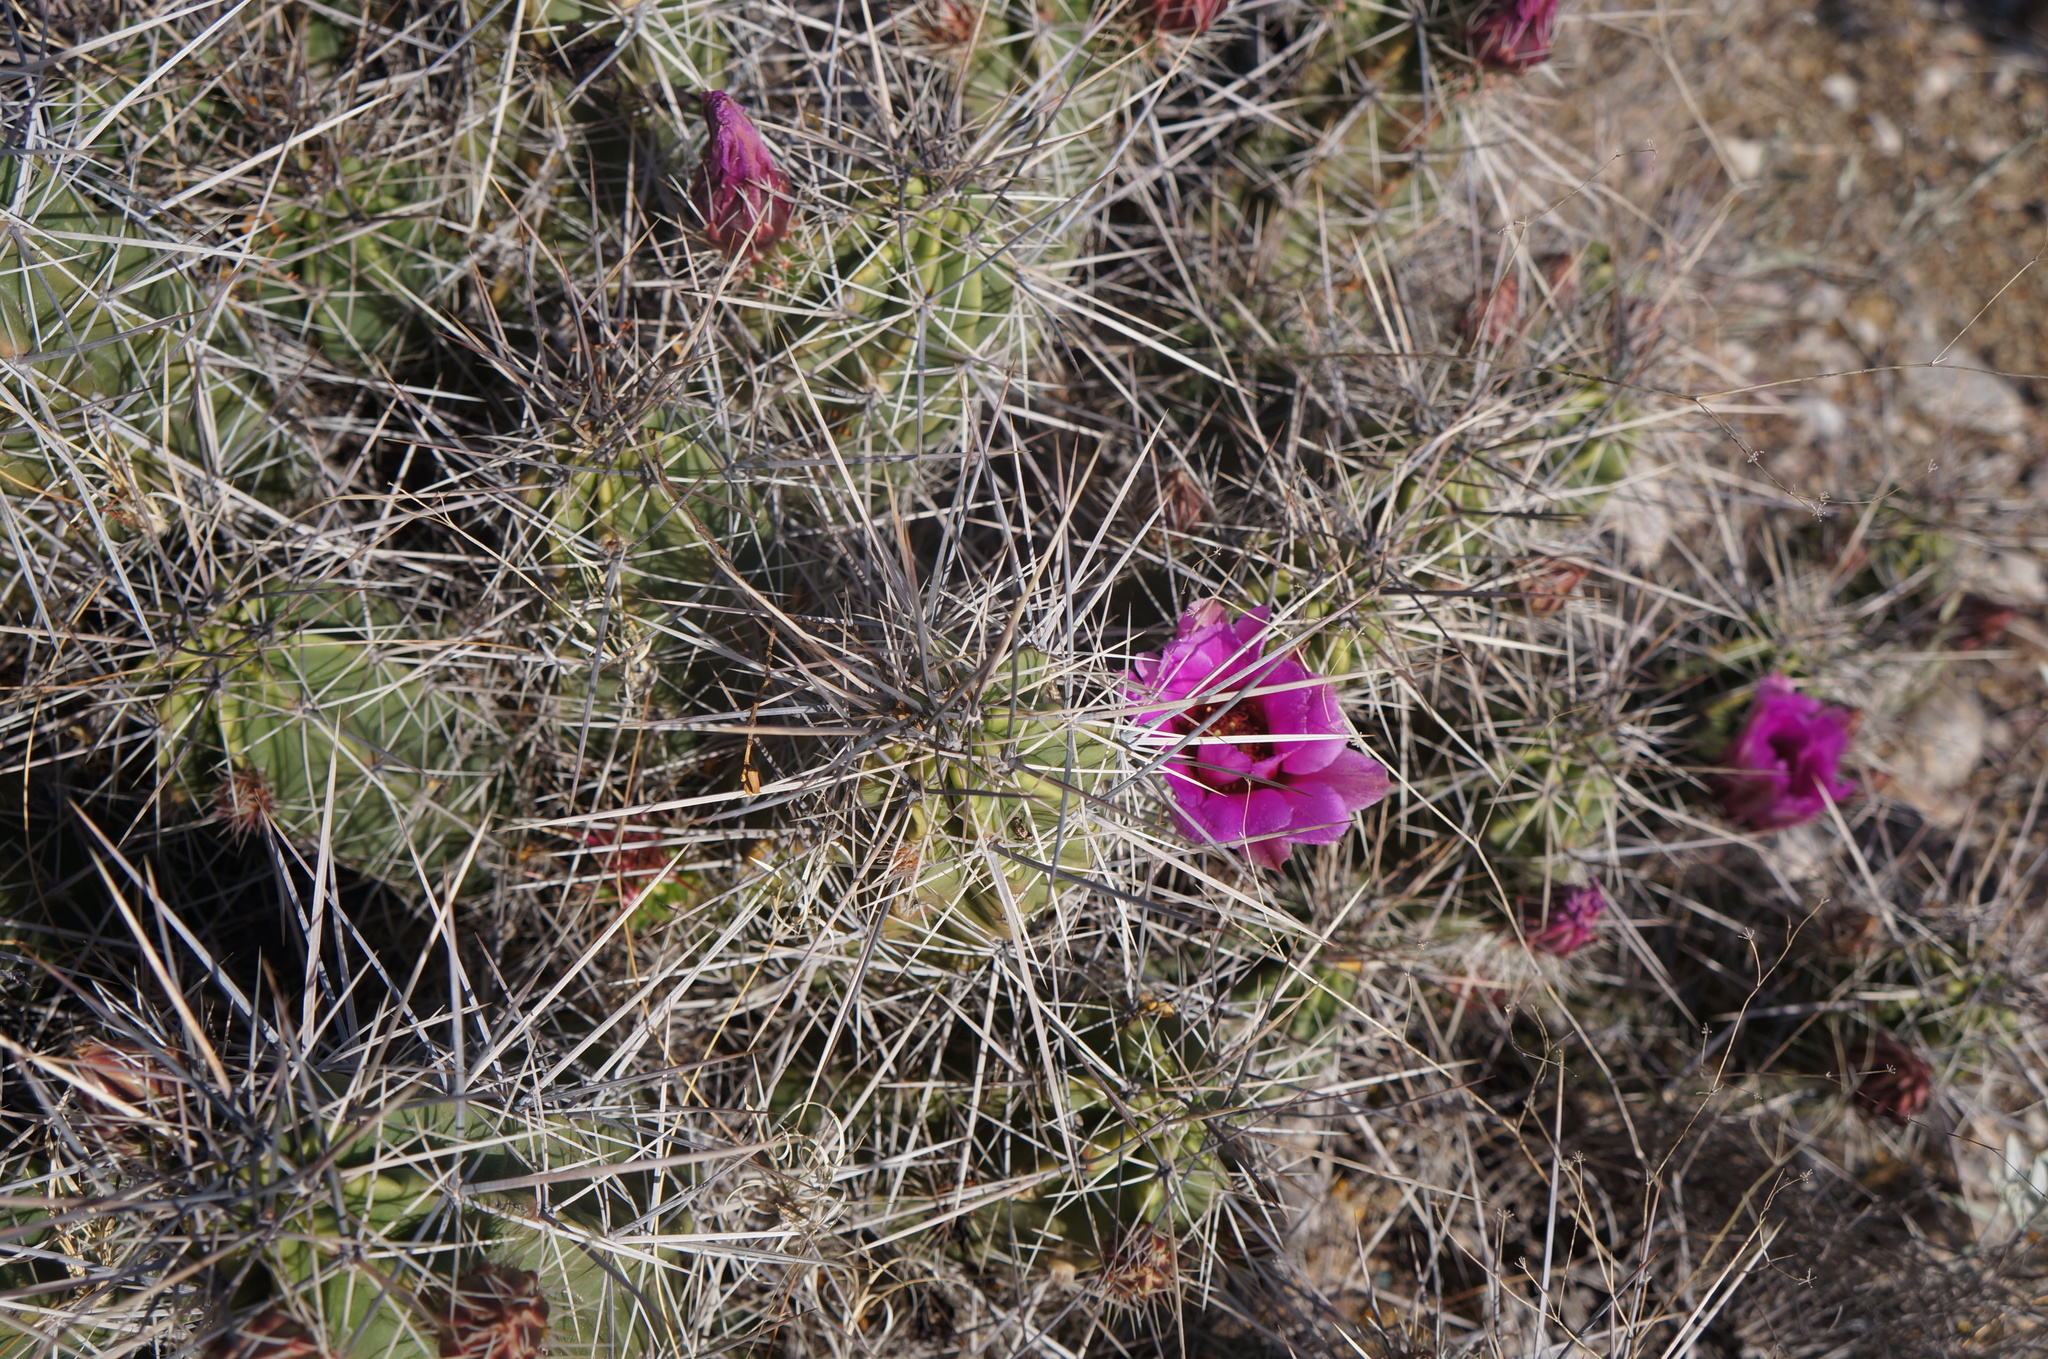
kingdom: Plantae
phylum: Tracheophyta
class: Magnoliopsida
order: Caryophyllales
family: Cactaceae
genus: Echinocereus
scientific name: Echinocereus enneacanthus
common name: Pitaya
